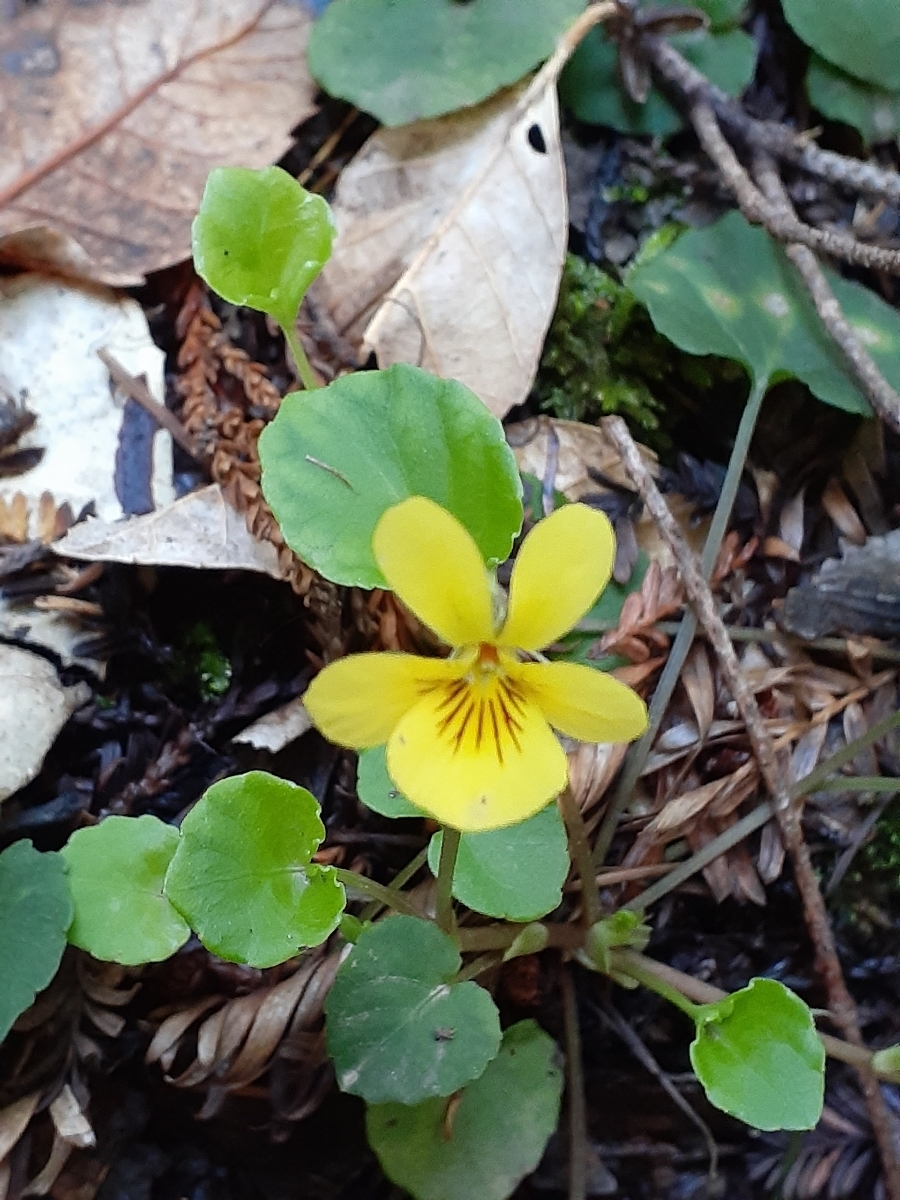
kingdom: Plantae
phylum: Tracheophyta
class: Magnoliopsida
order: Malpighiales
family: Violaceae
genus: Viola
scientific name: Viola sempervirens
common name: Evergreen violet
